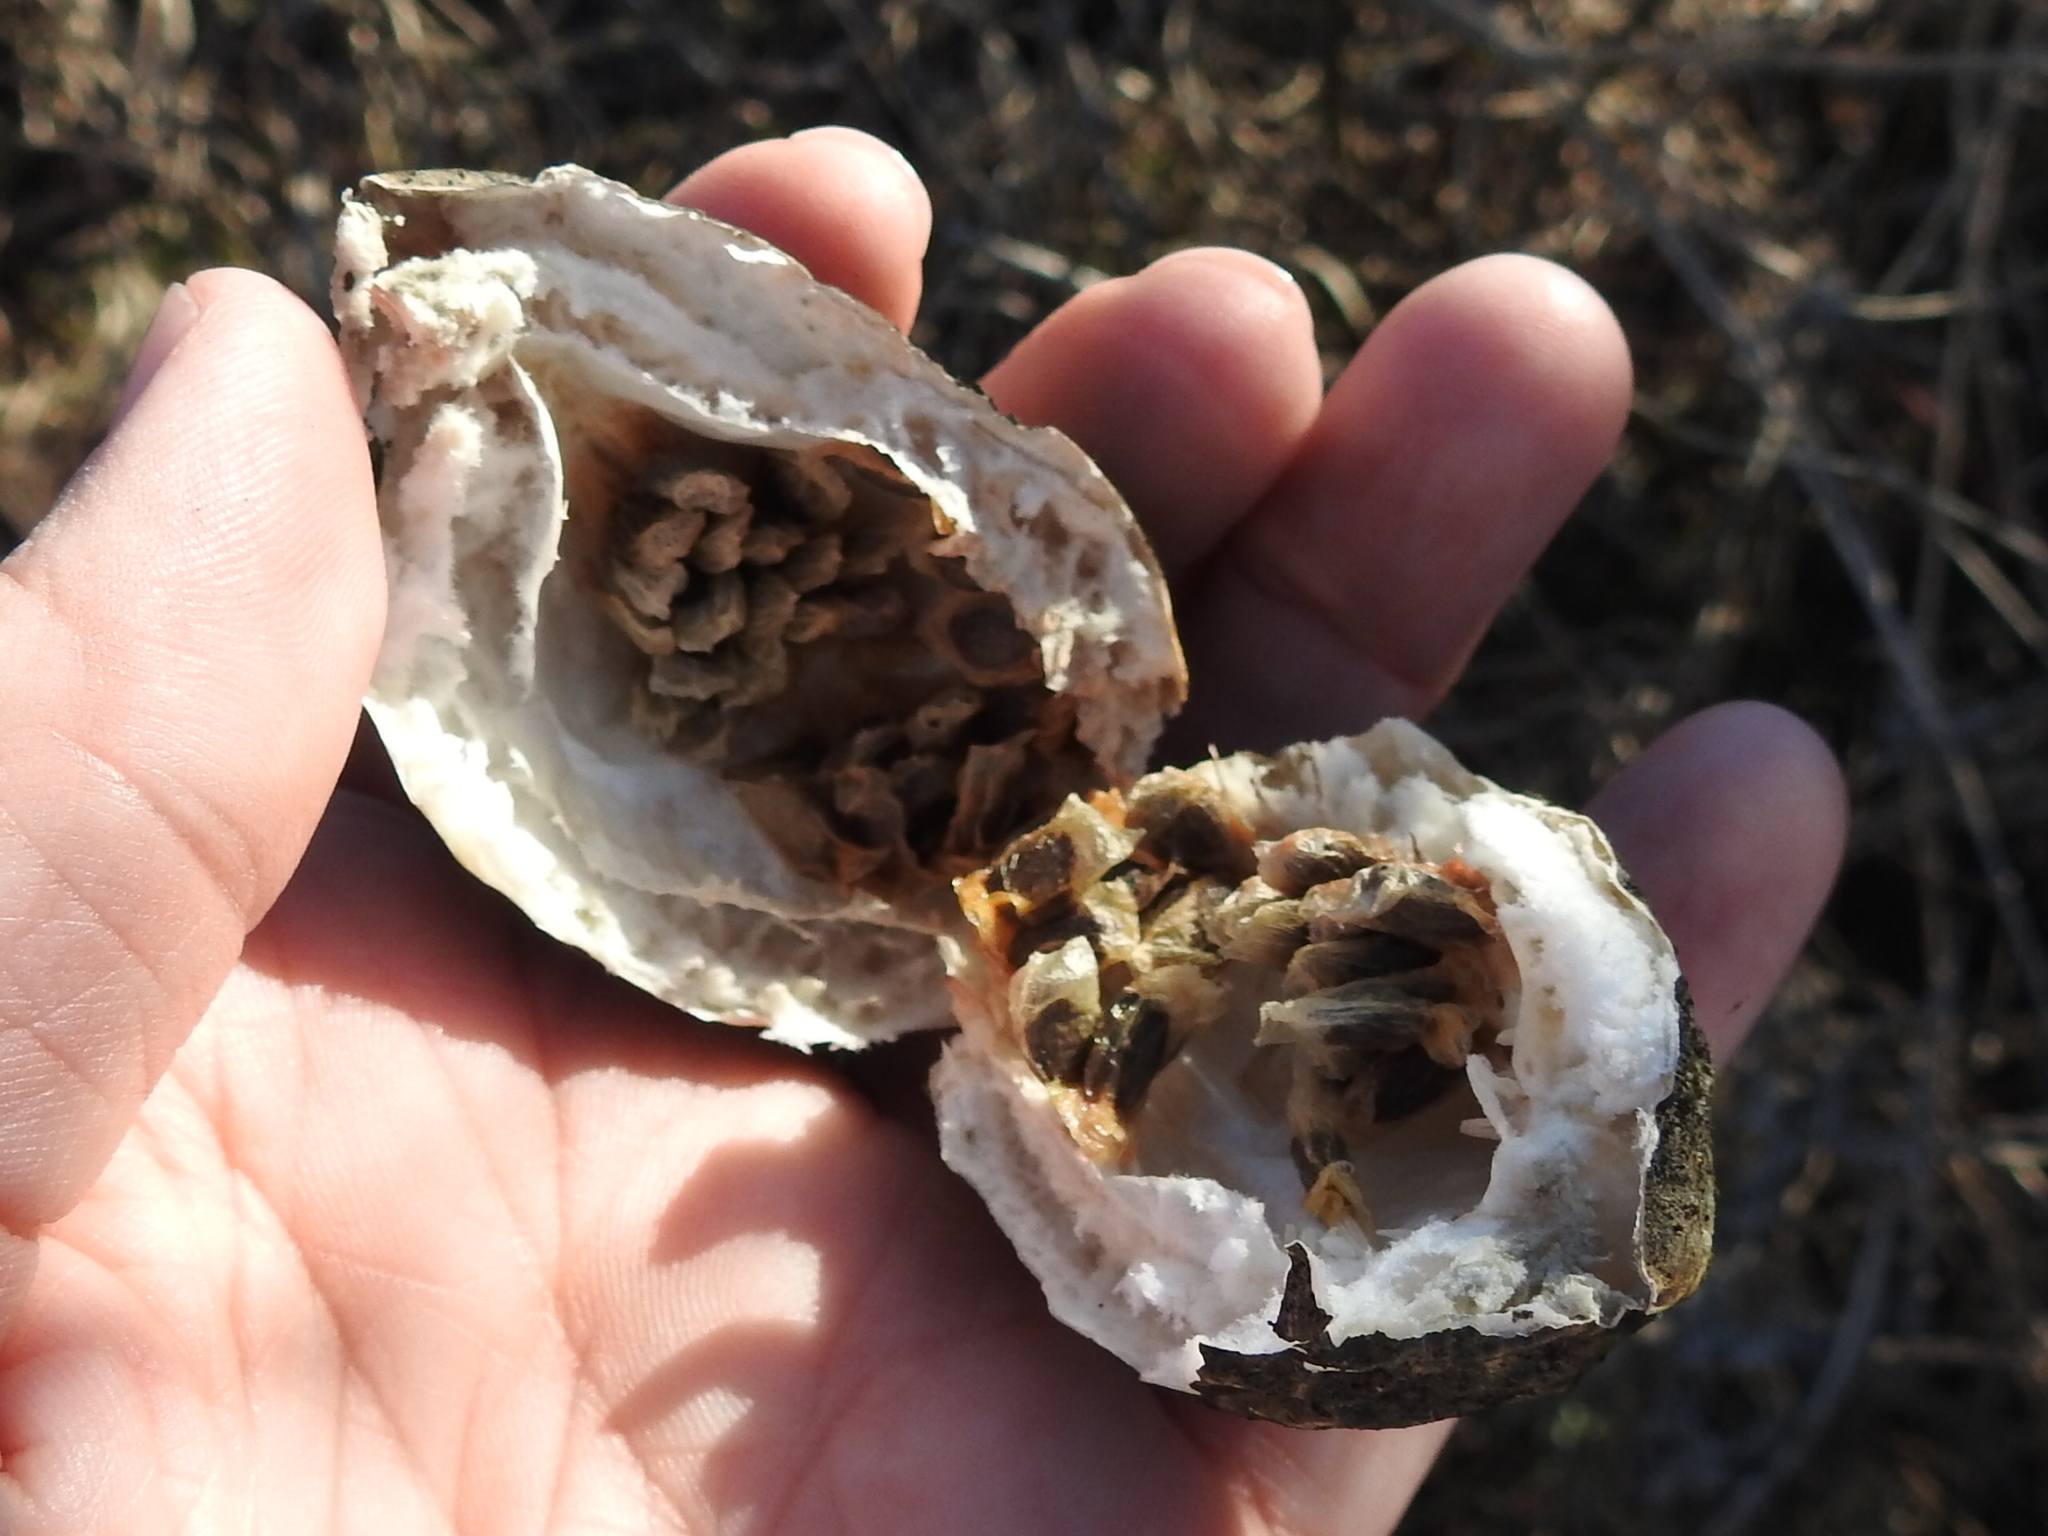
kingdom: Plantae
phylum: Tracheophyta
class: Magnoliopsida
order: Malpighiales
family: Passifloraceae
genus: Passiflora
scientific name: Passiflora incarnata
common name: Apricot-vine
